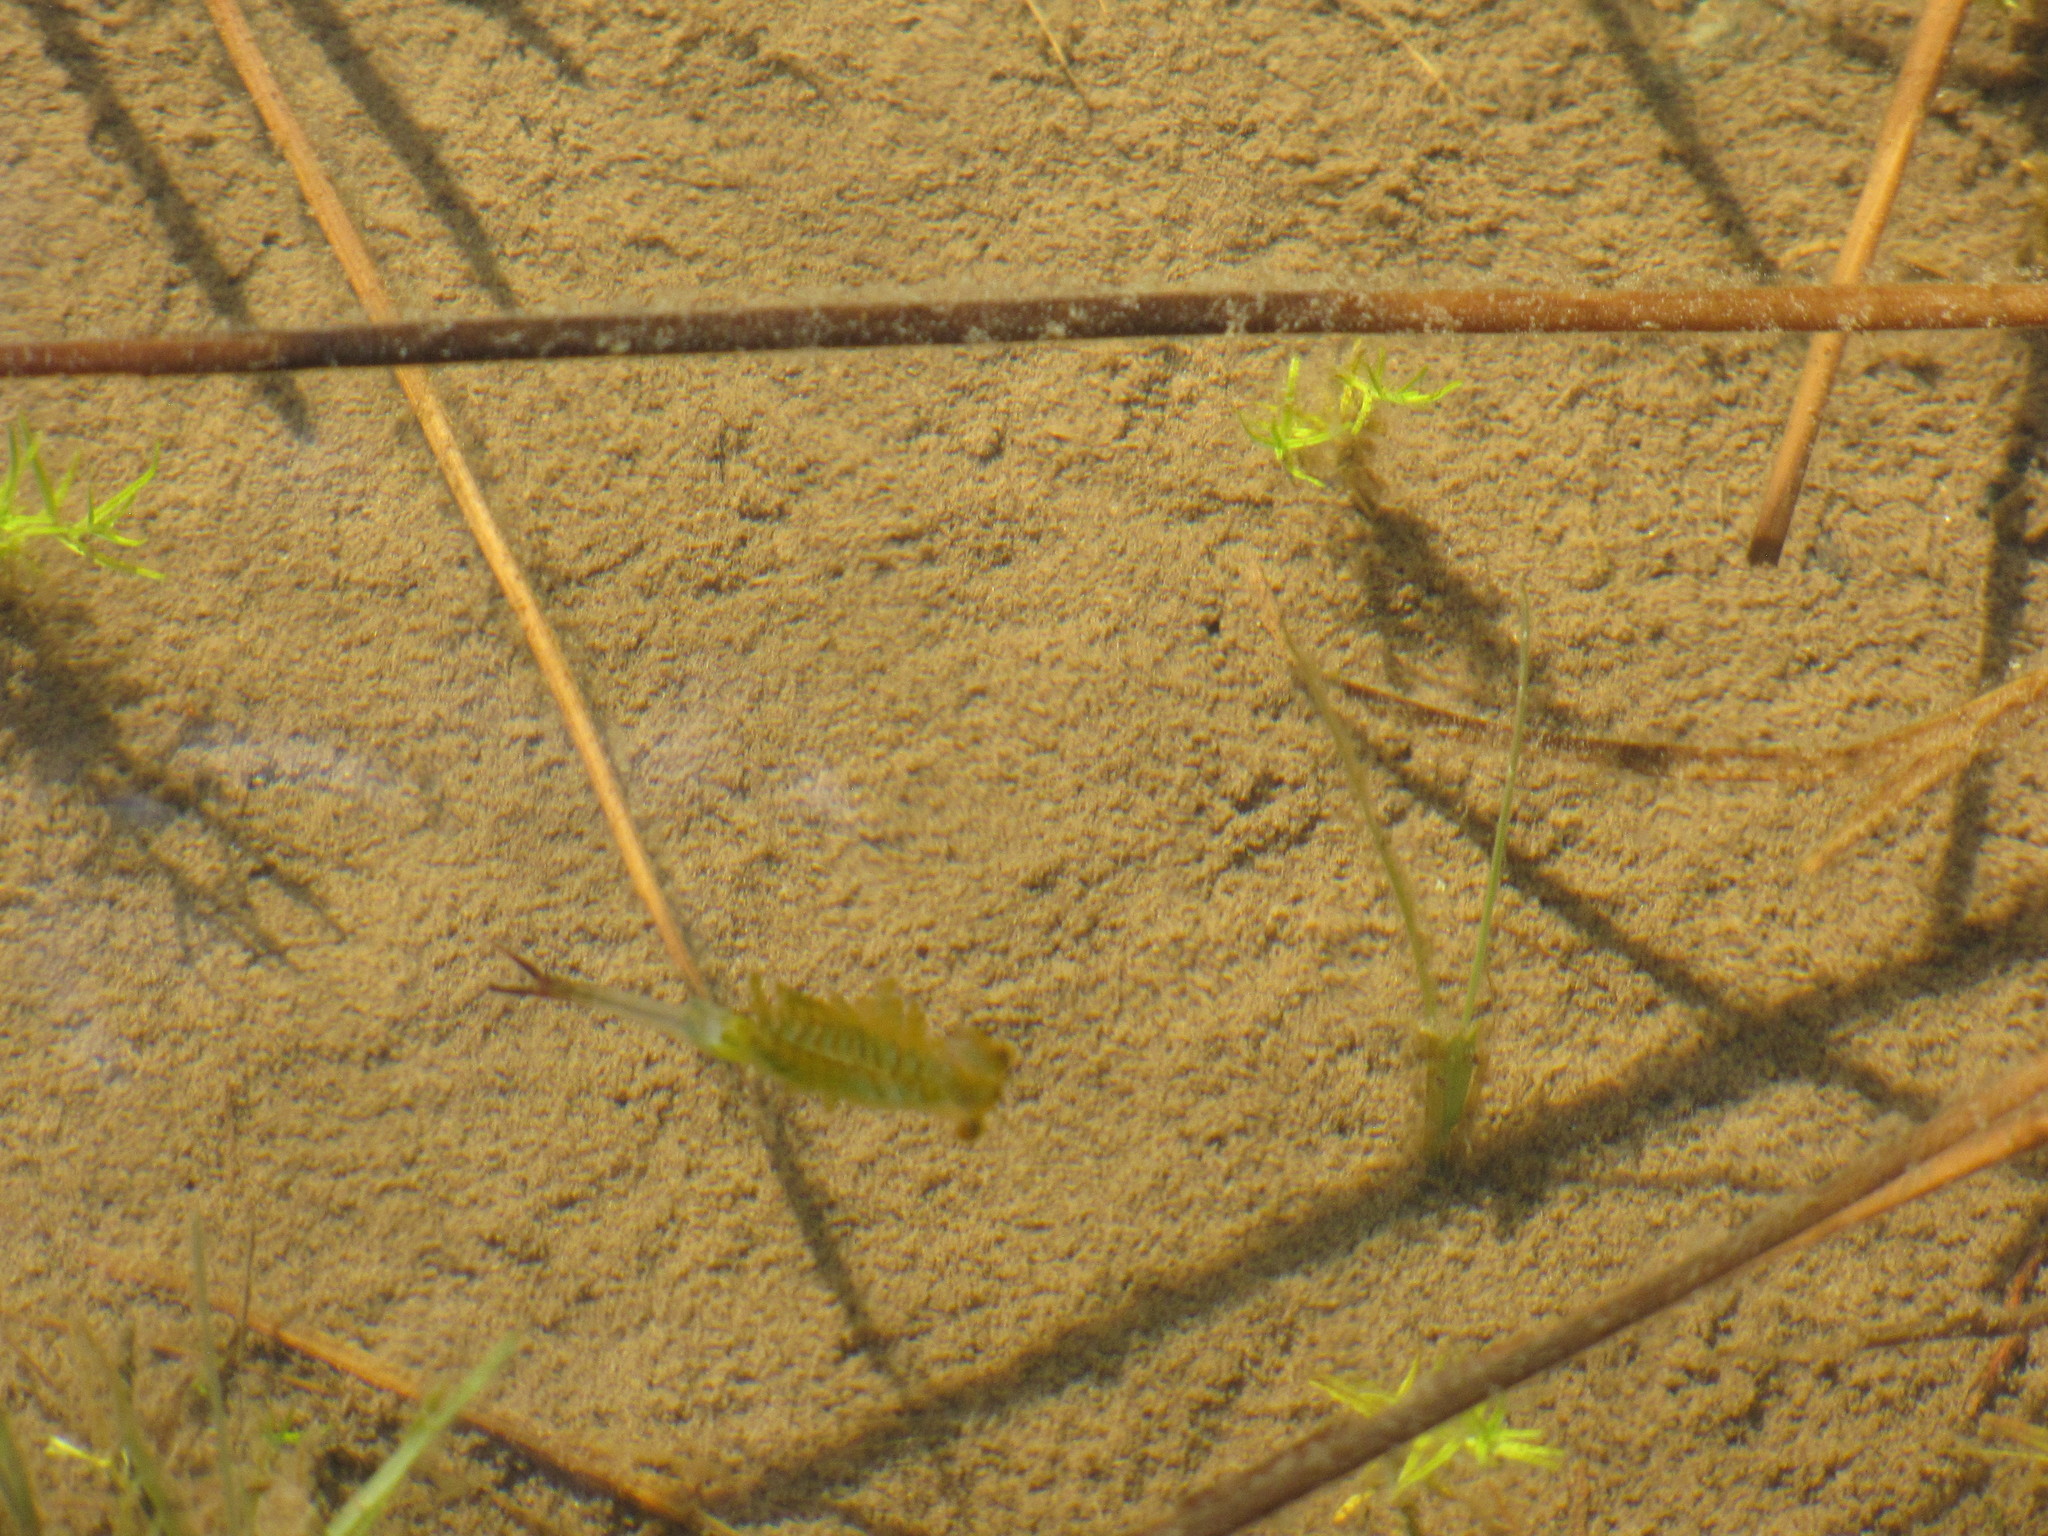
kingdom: Animalia
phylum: Arthropoda
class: Branchiopoda
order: Anostraca
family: Chirocephalidae
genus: Eubranchipus
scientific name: Eubranchipus oregonus
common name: Oregon fairy shrimp
